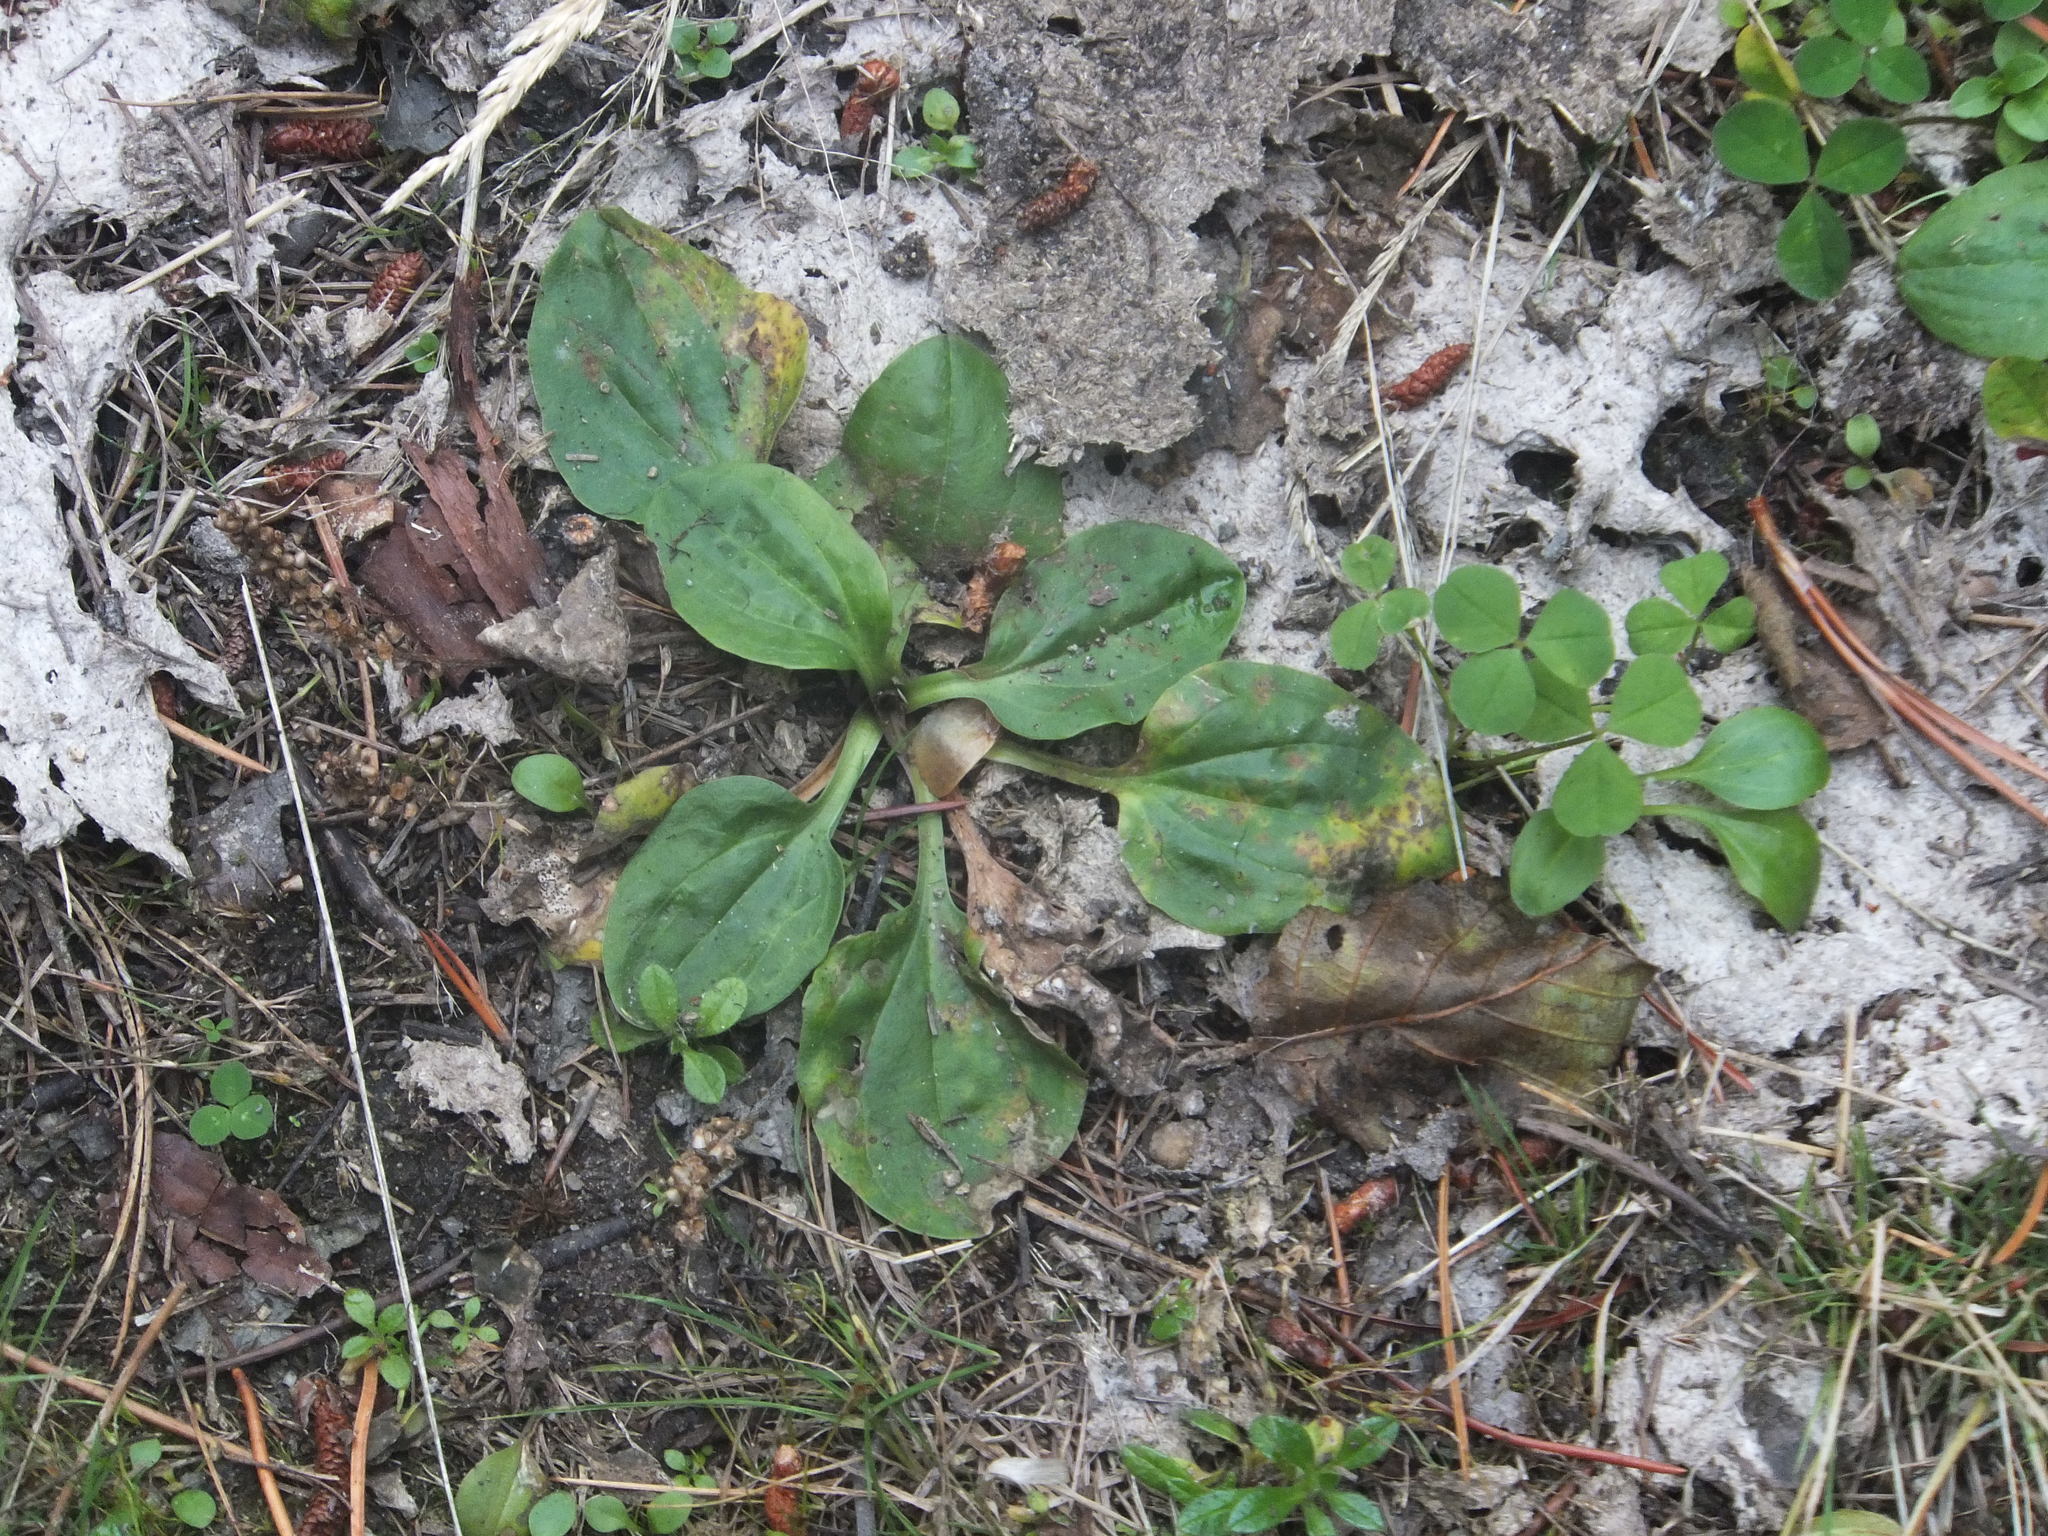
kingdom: Plantae
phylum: Tracheophyta
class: Magnoliopsida
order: Lamiales
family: Plantaginaceae
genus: Plantago
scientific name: Plantago major
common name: Common plantain
